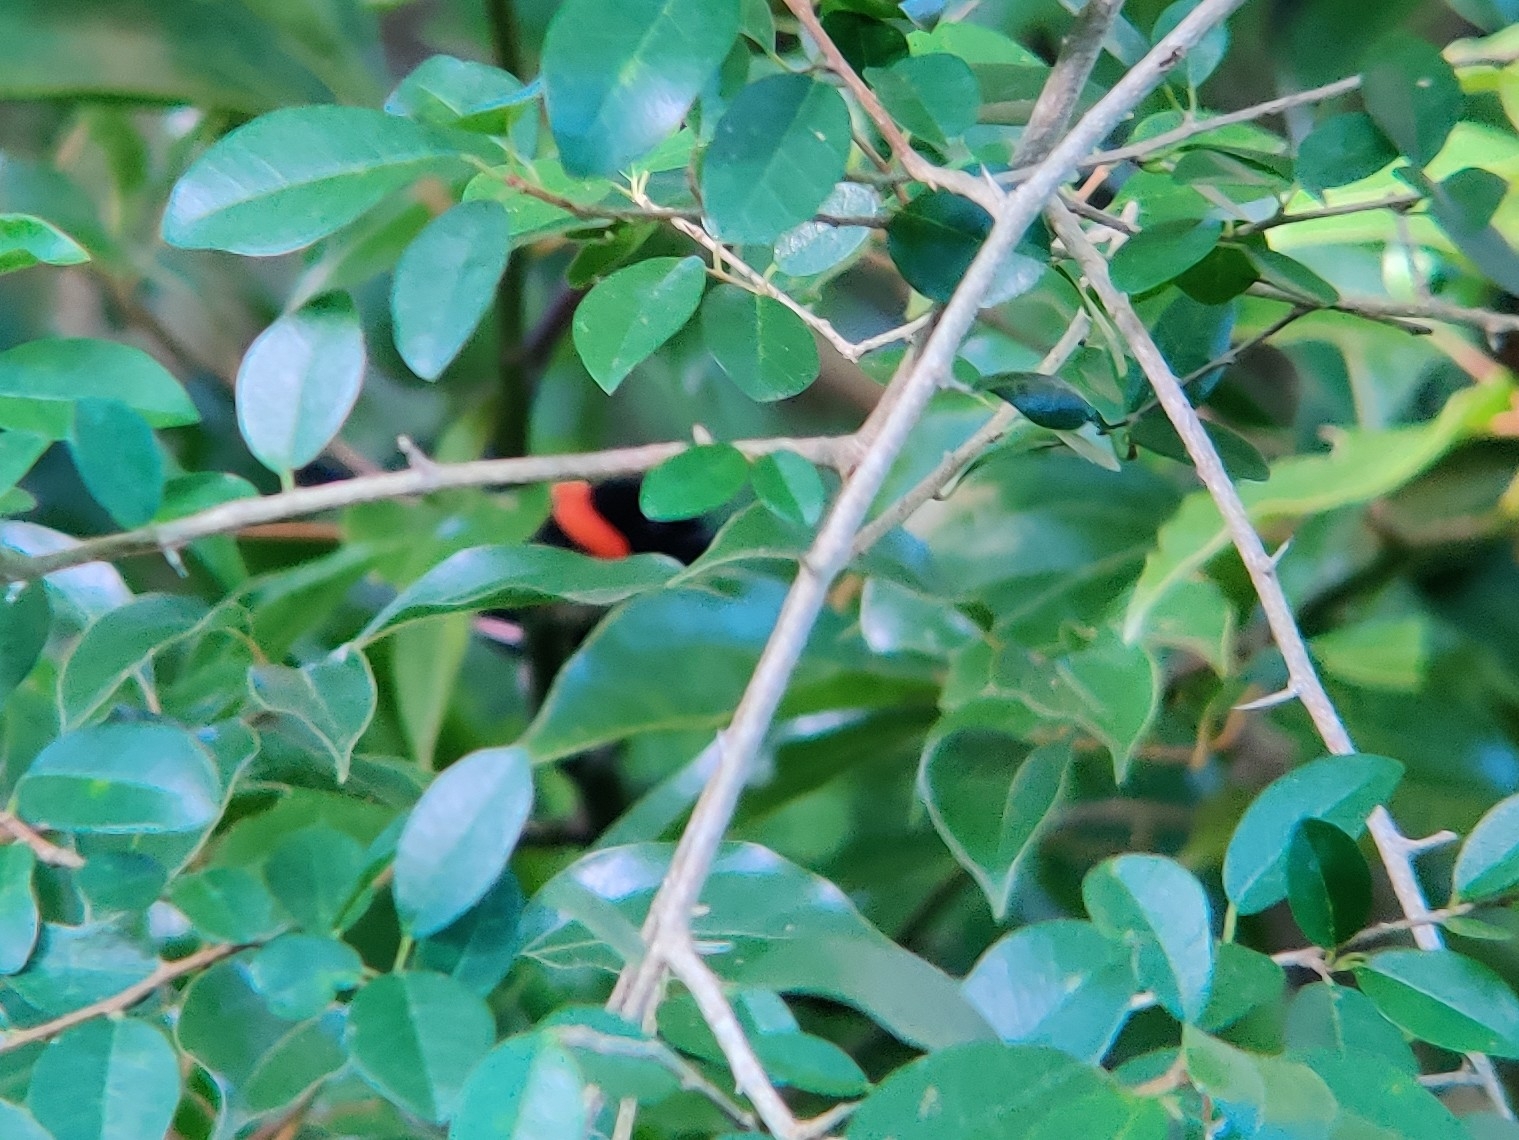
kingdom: Animalia
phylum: Chordata
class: Aves
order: Passeriformes
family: Maluridae
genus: Malurus
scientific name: Malurus melanocephalus
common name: Red-backed fairywren
